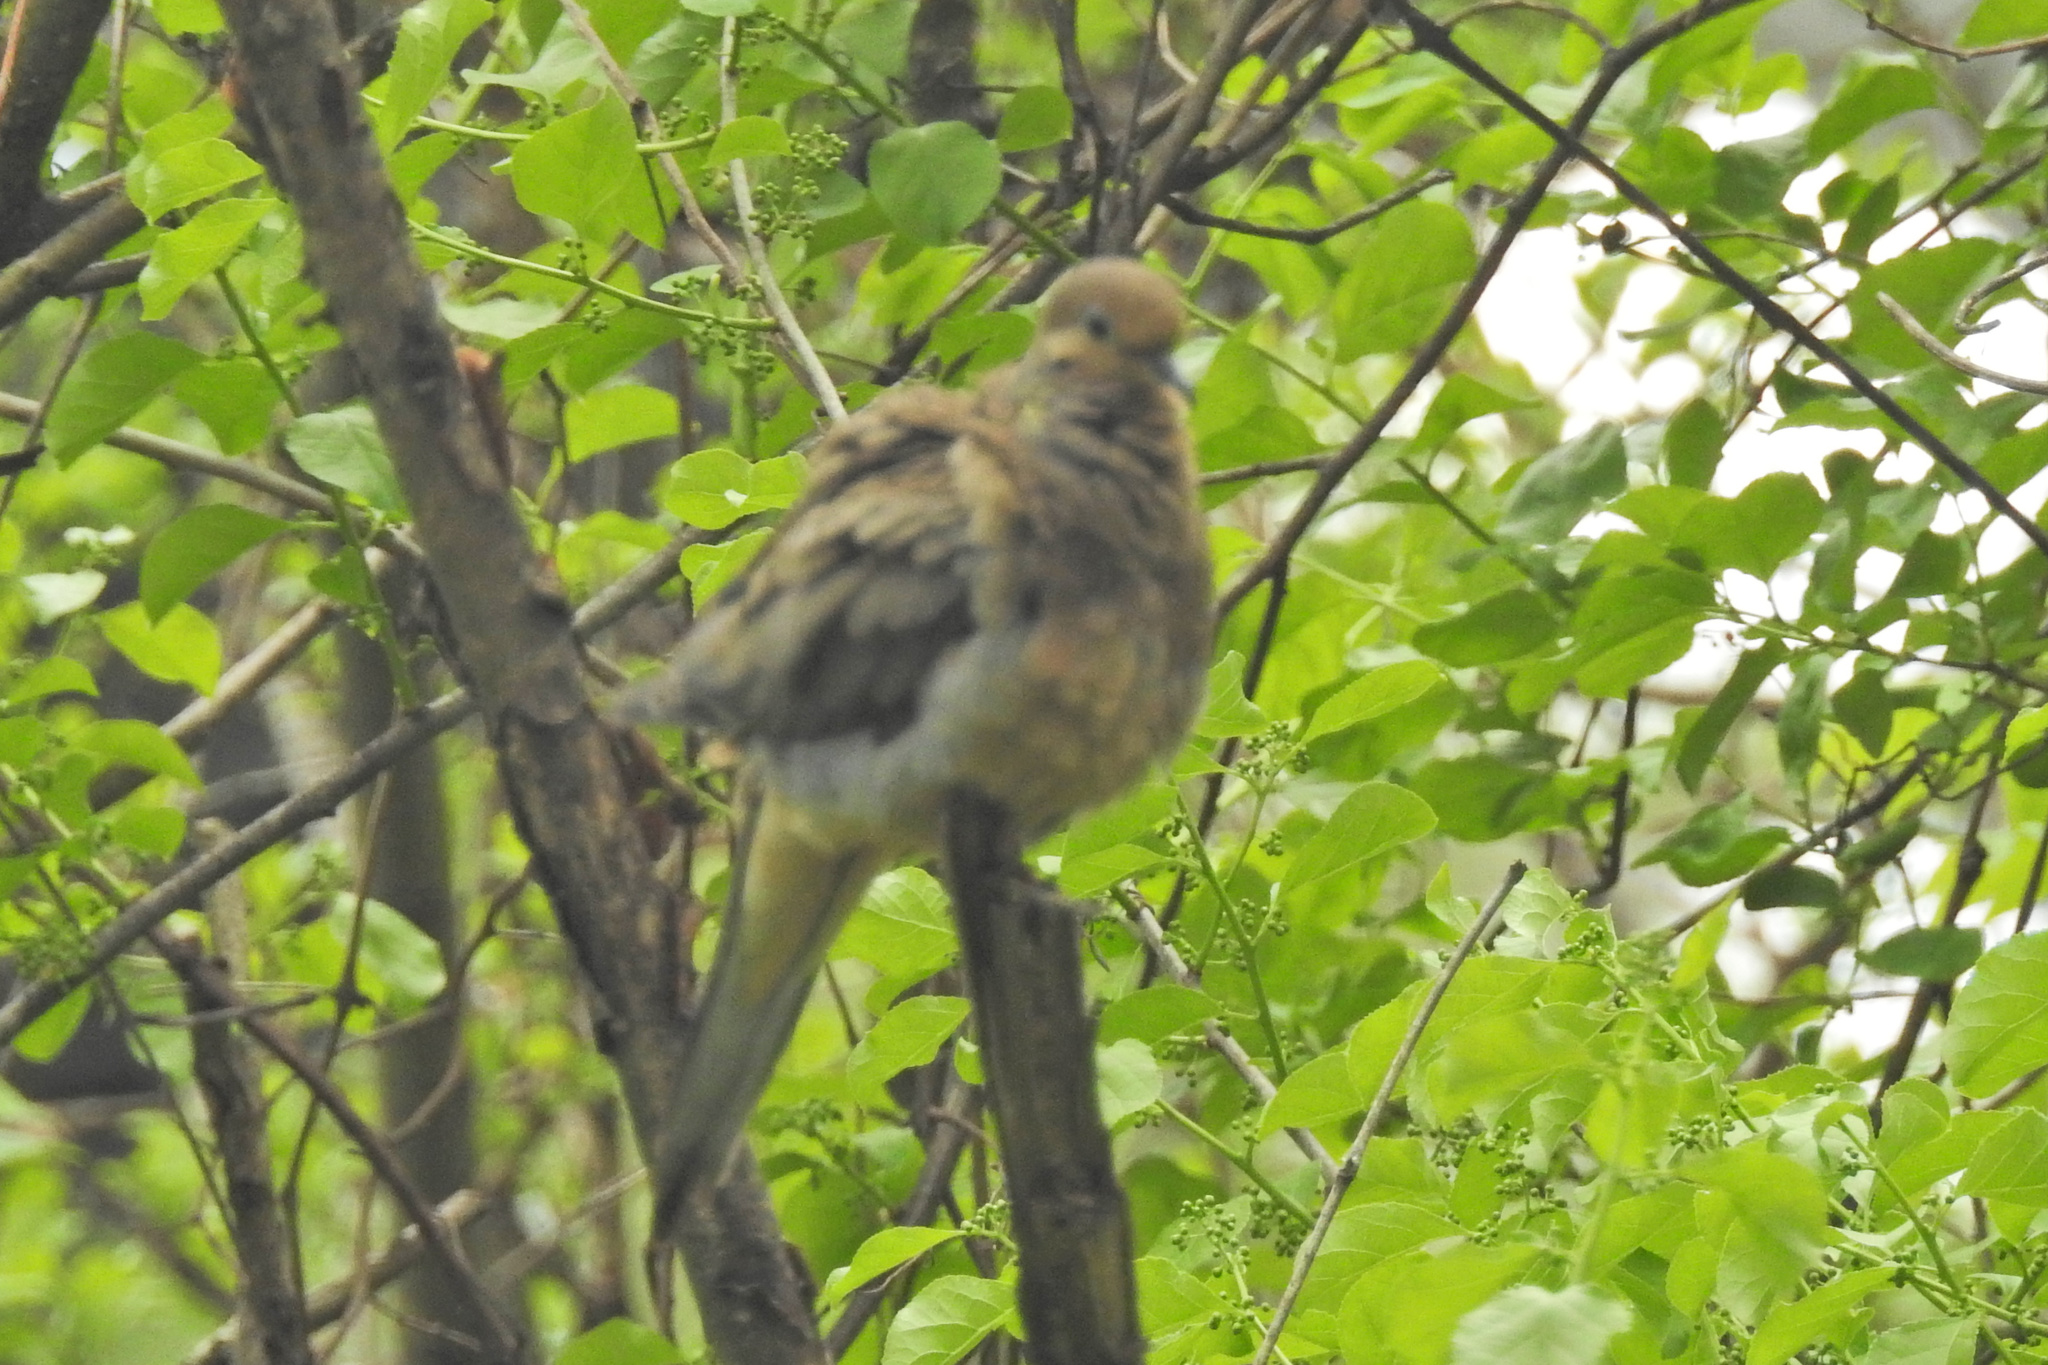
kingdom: Animalia
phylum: Chordata
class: Aves
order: Columbiformes
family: Columbidae
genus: Zenaida
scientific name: Zenaida macroura
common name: Mourning dove
